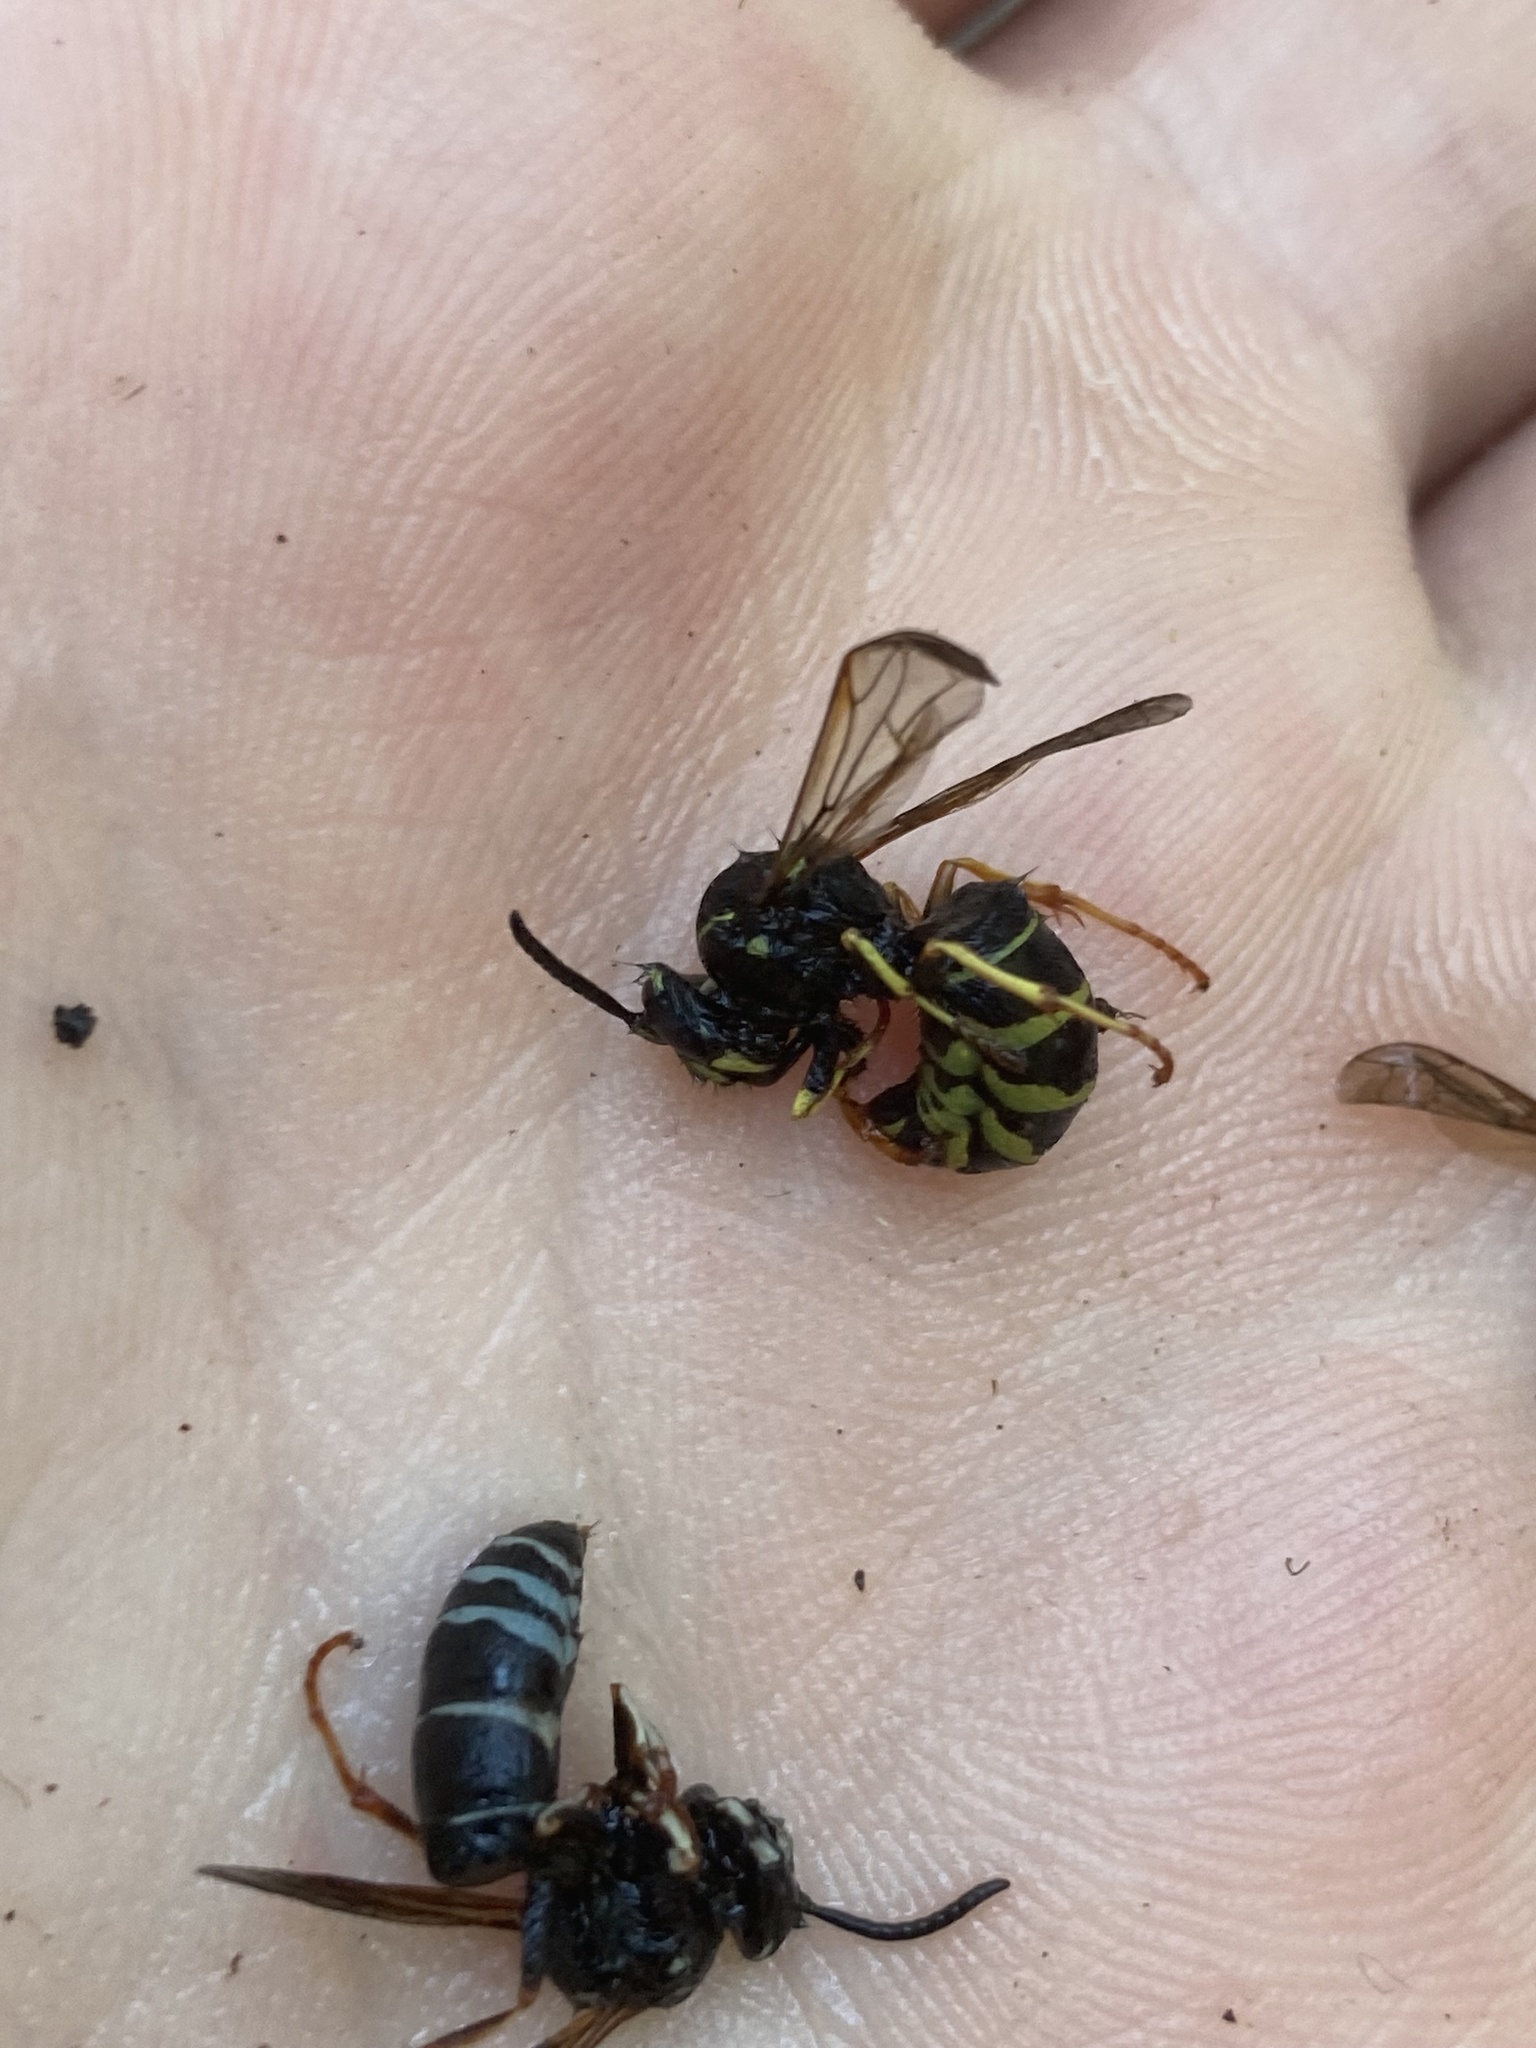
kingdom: Animalia
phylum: Arthropoda
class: Insecta
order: Hymenoptera
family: Vespidae
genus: Vespula
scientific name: Vespula consobrina
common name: Blackjacket
